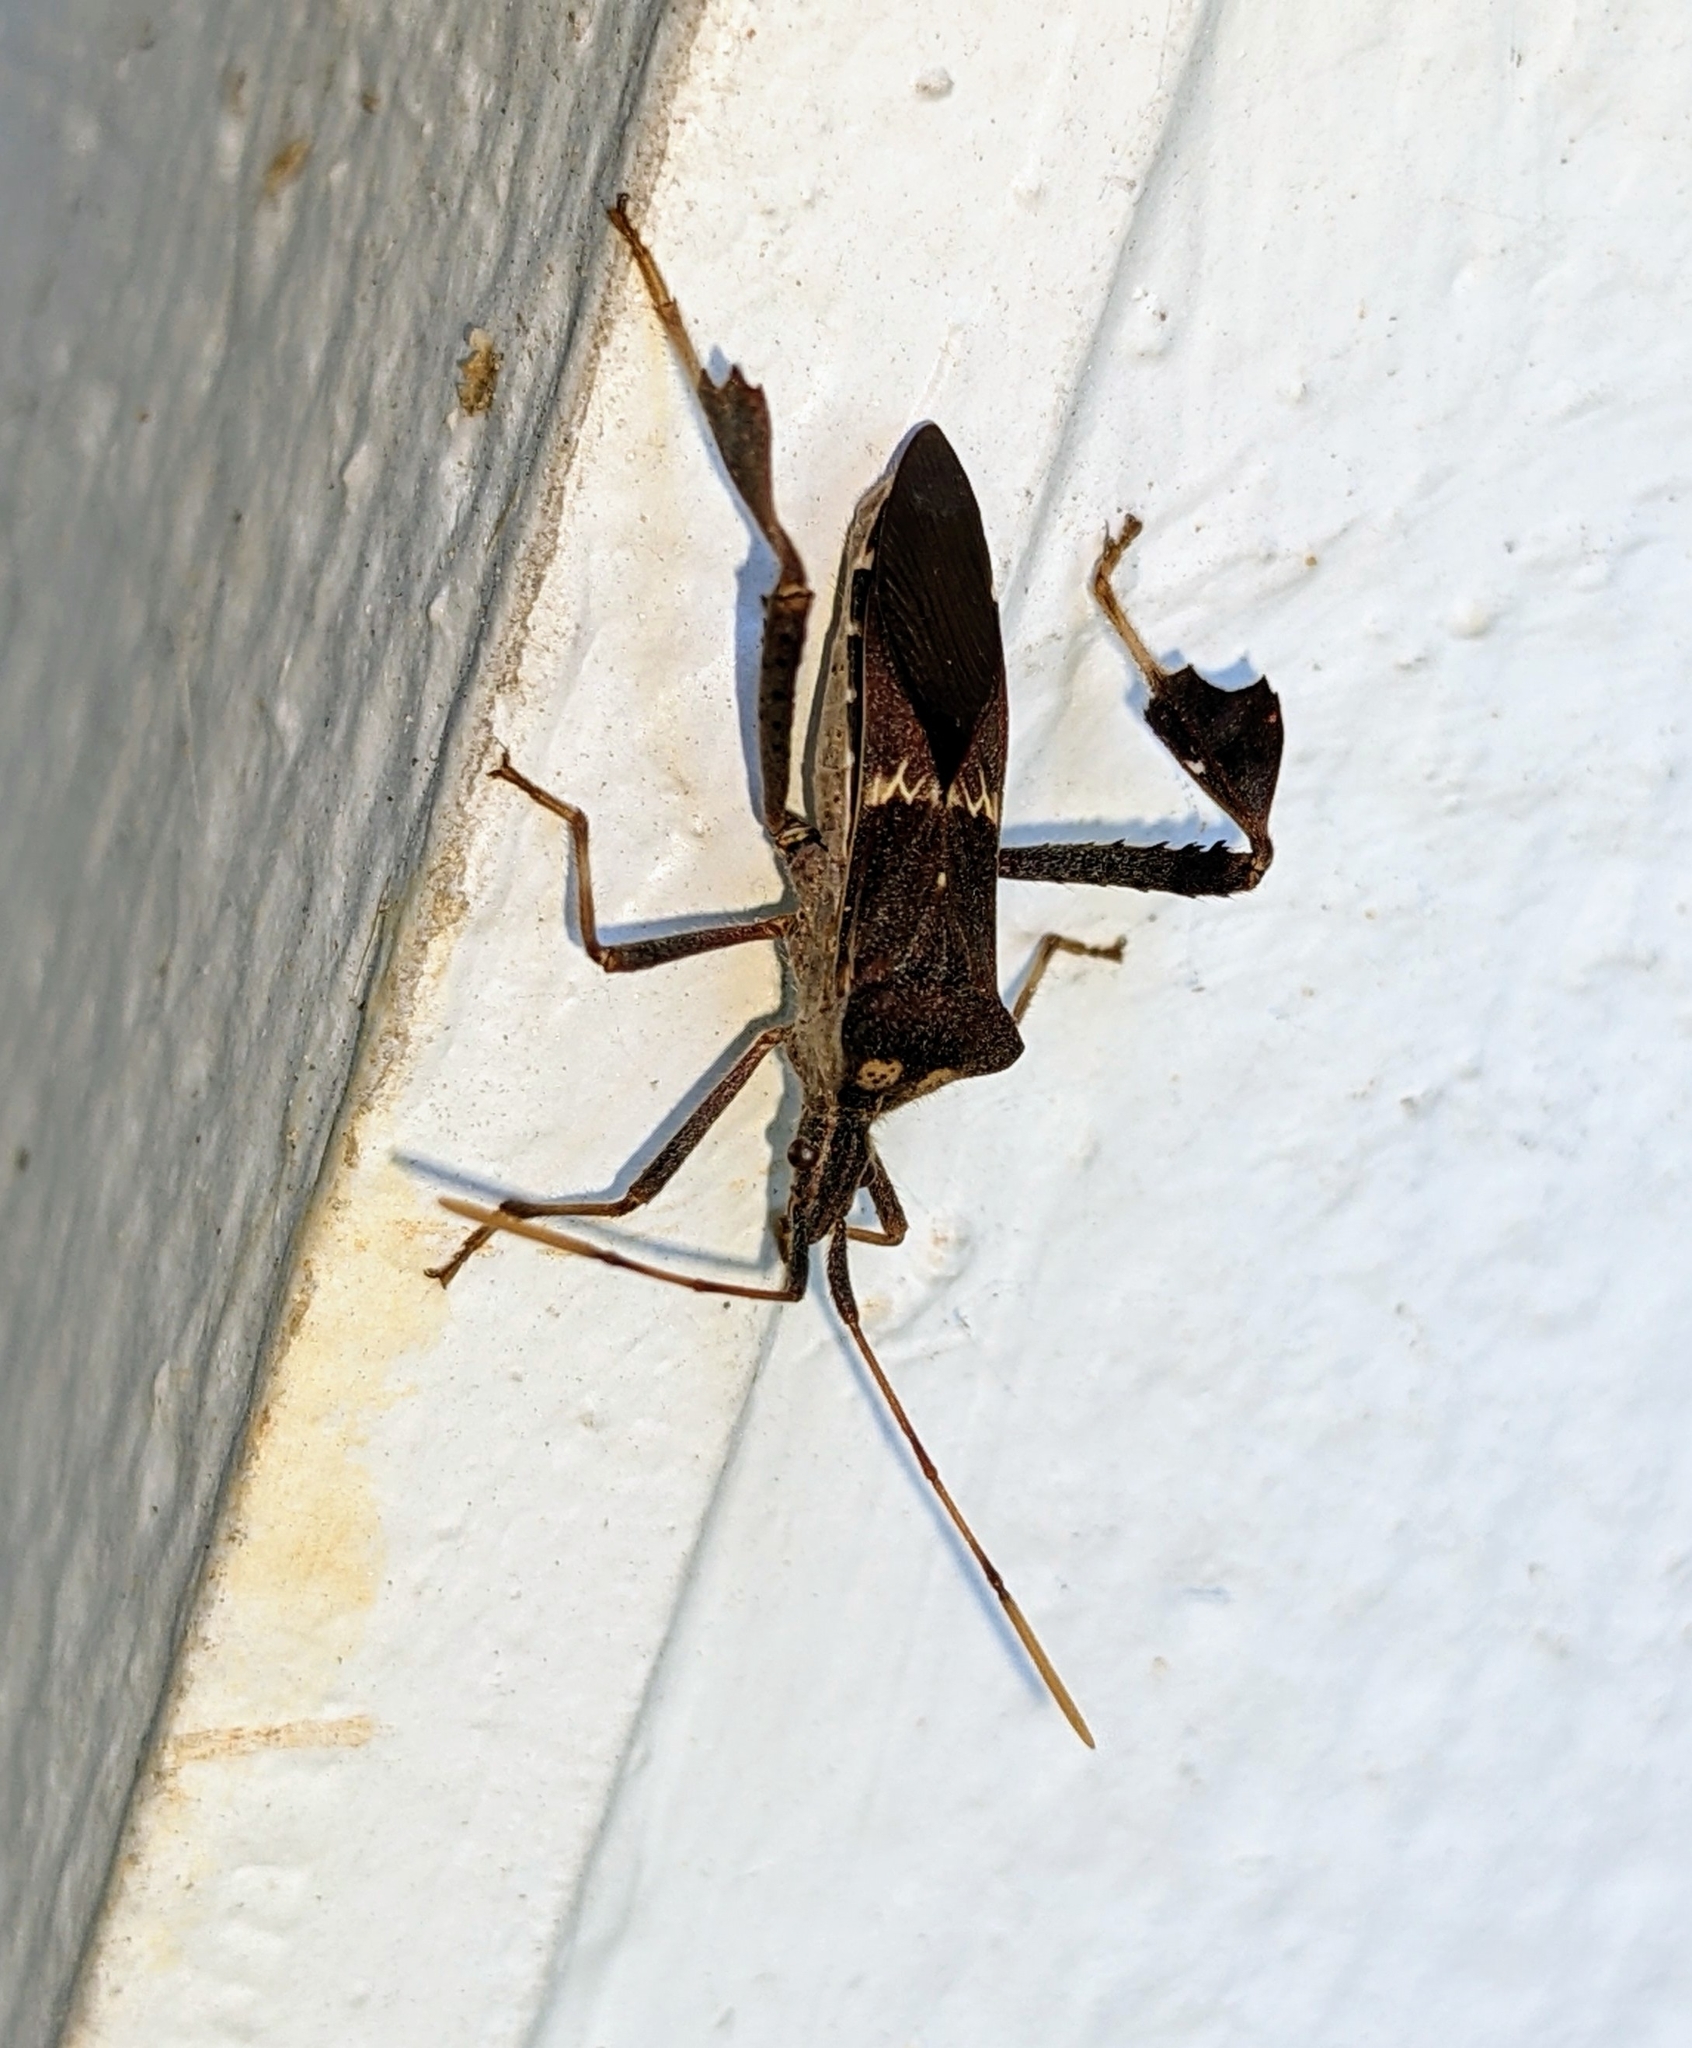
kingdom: Animalia
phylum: Arthropoda
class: Insecta
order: Hemiptera
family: Coreidae
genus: Leptoglossus
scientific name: Leptoglossus zonatus
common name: Large-legged bug
